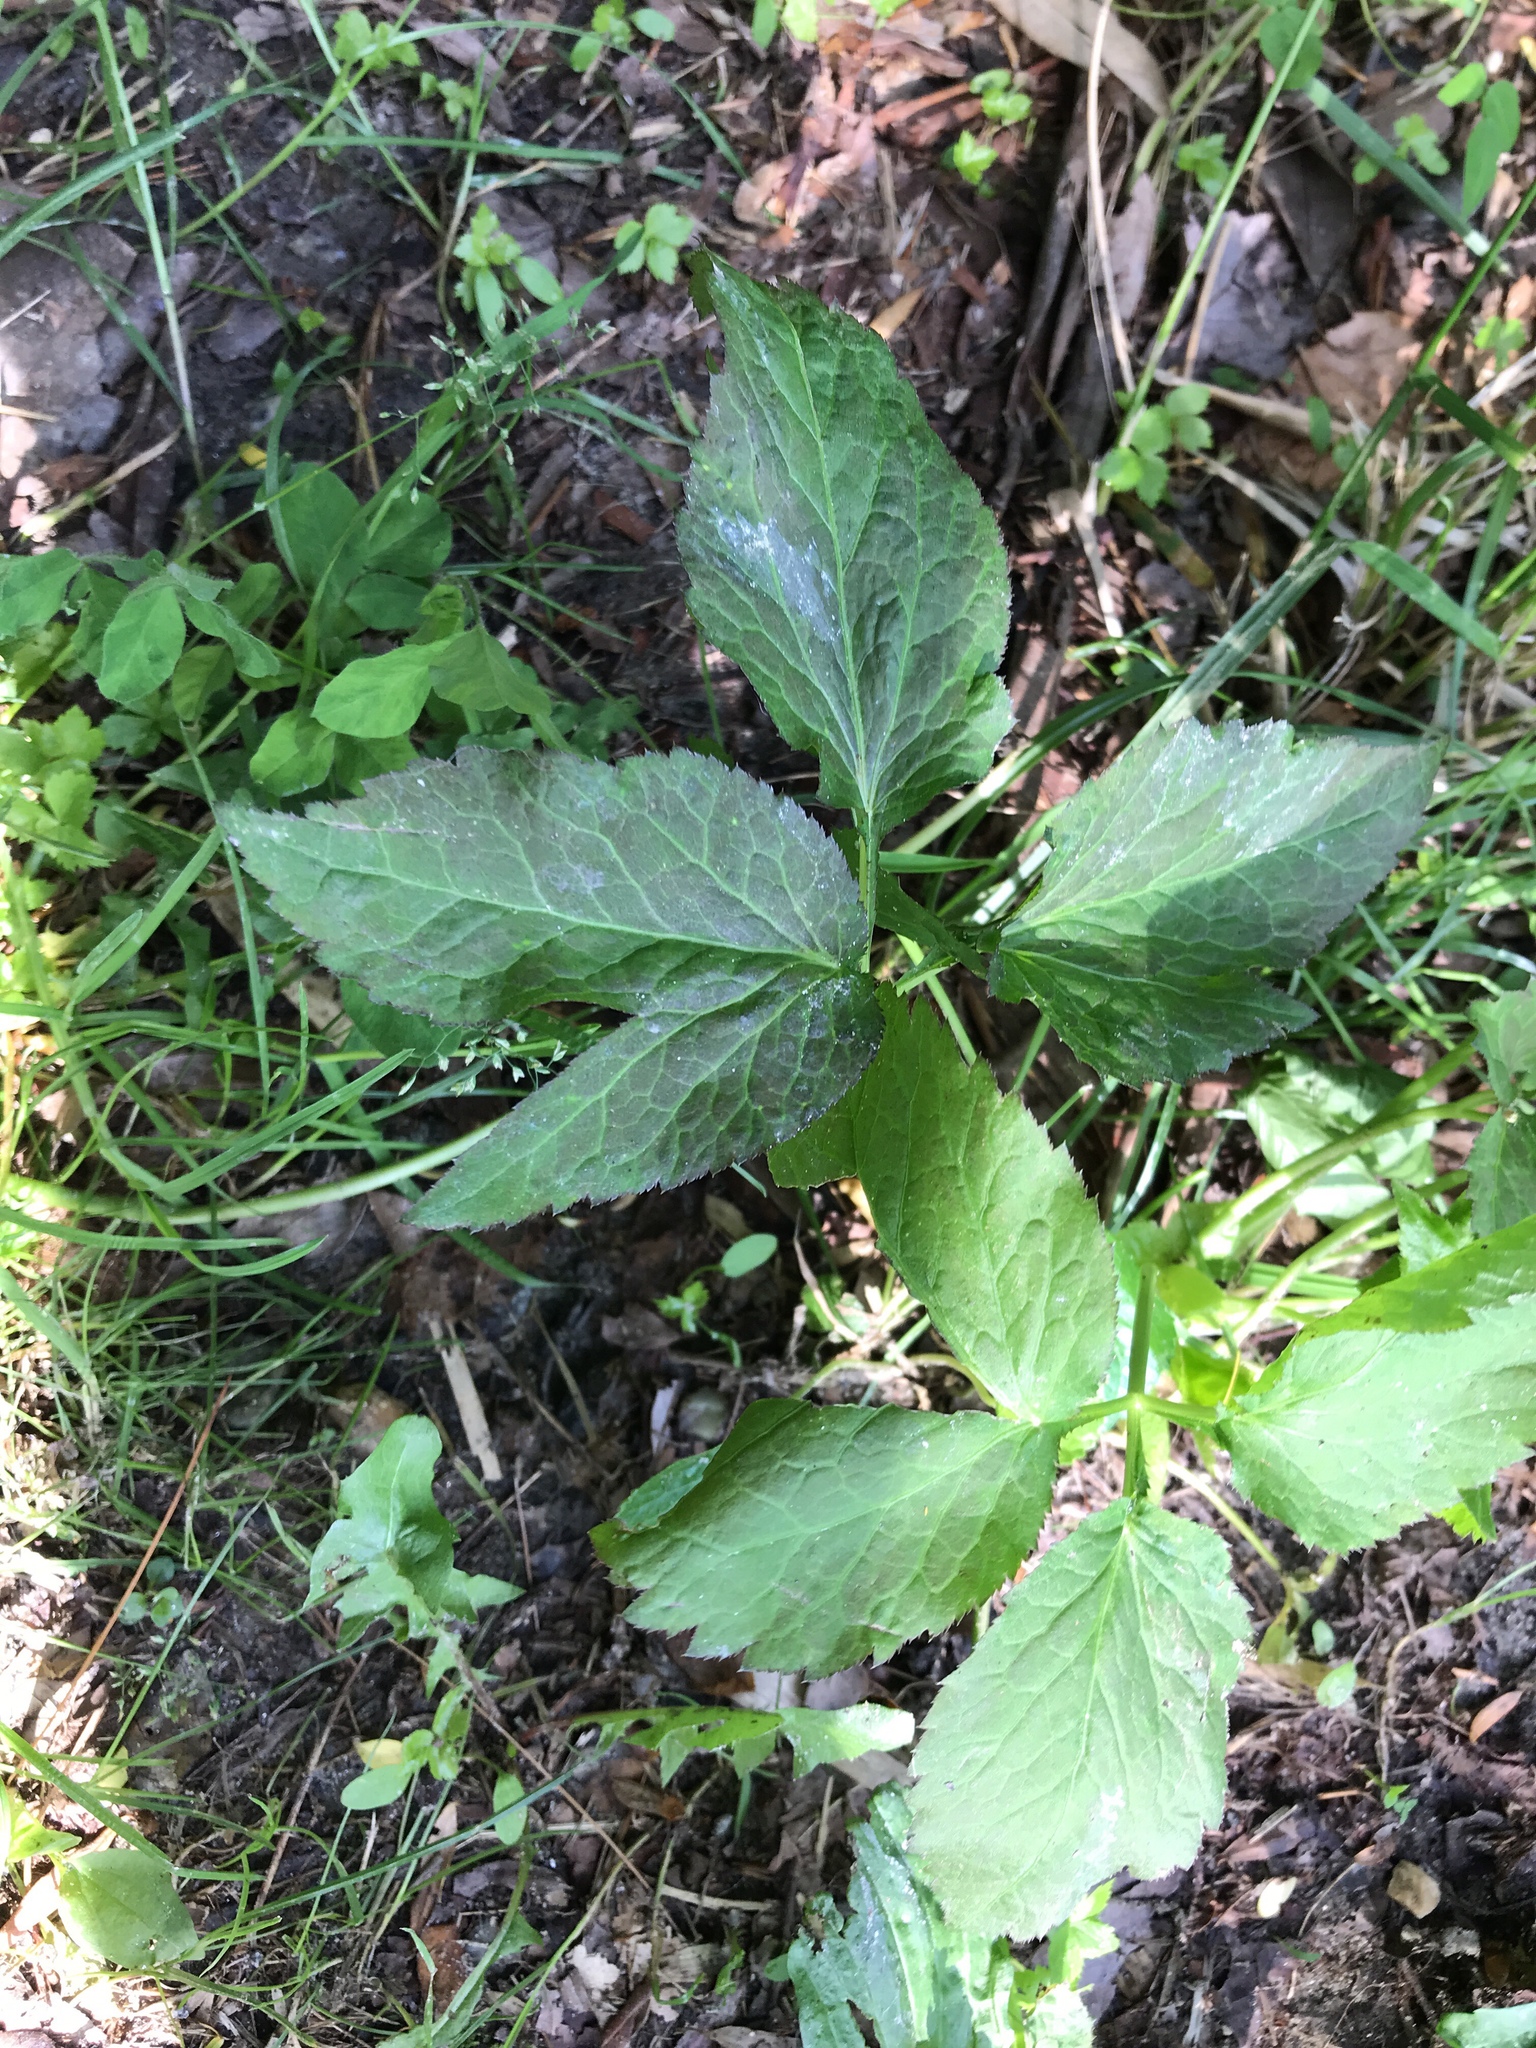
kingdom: Plantae
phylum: Tracheophyta
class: Magnoliopsida
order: Apiales
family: Apiaceae
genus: Cryptotaenia
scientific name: Cryptotaenia canadensis
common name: Honewort
